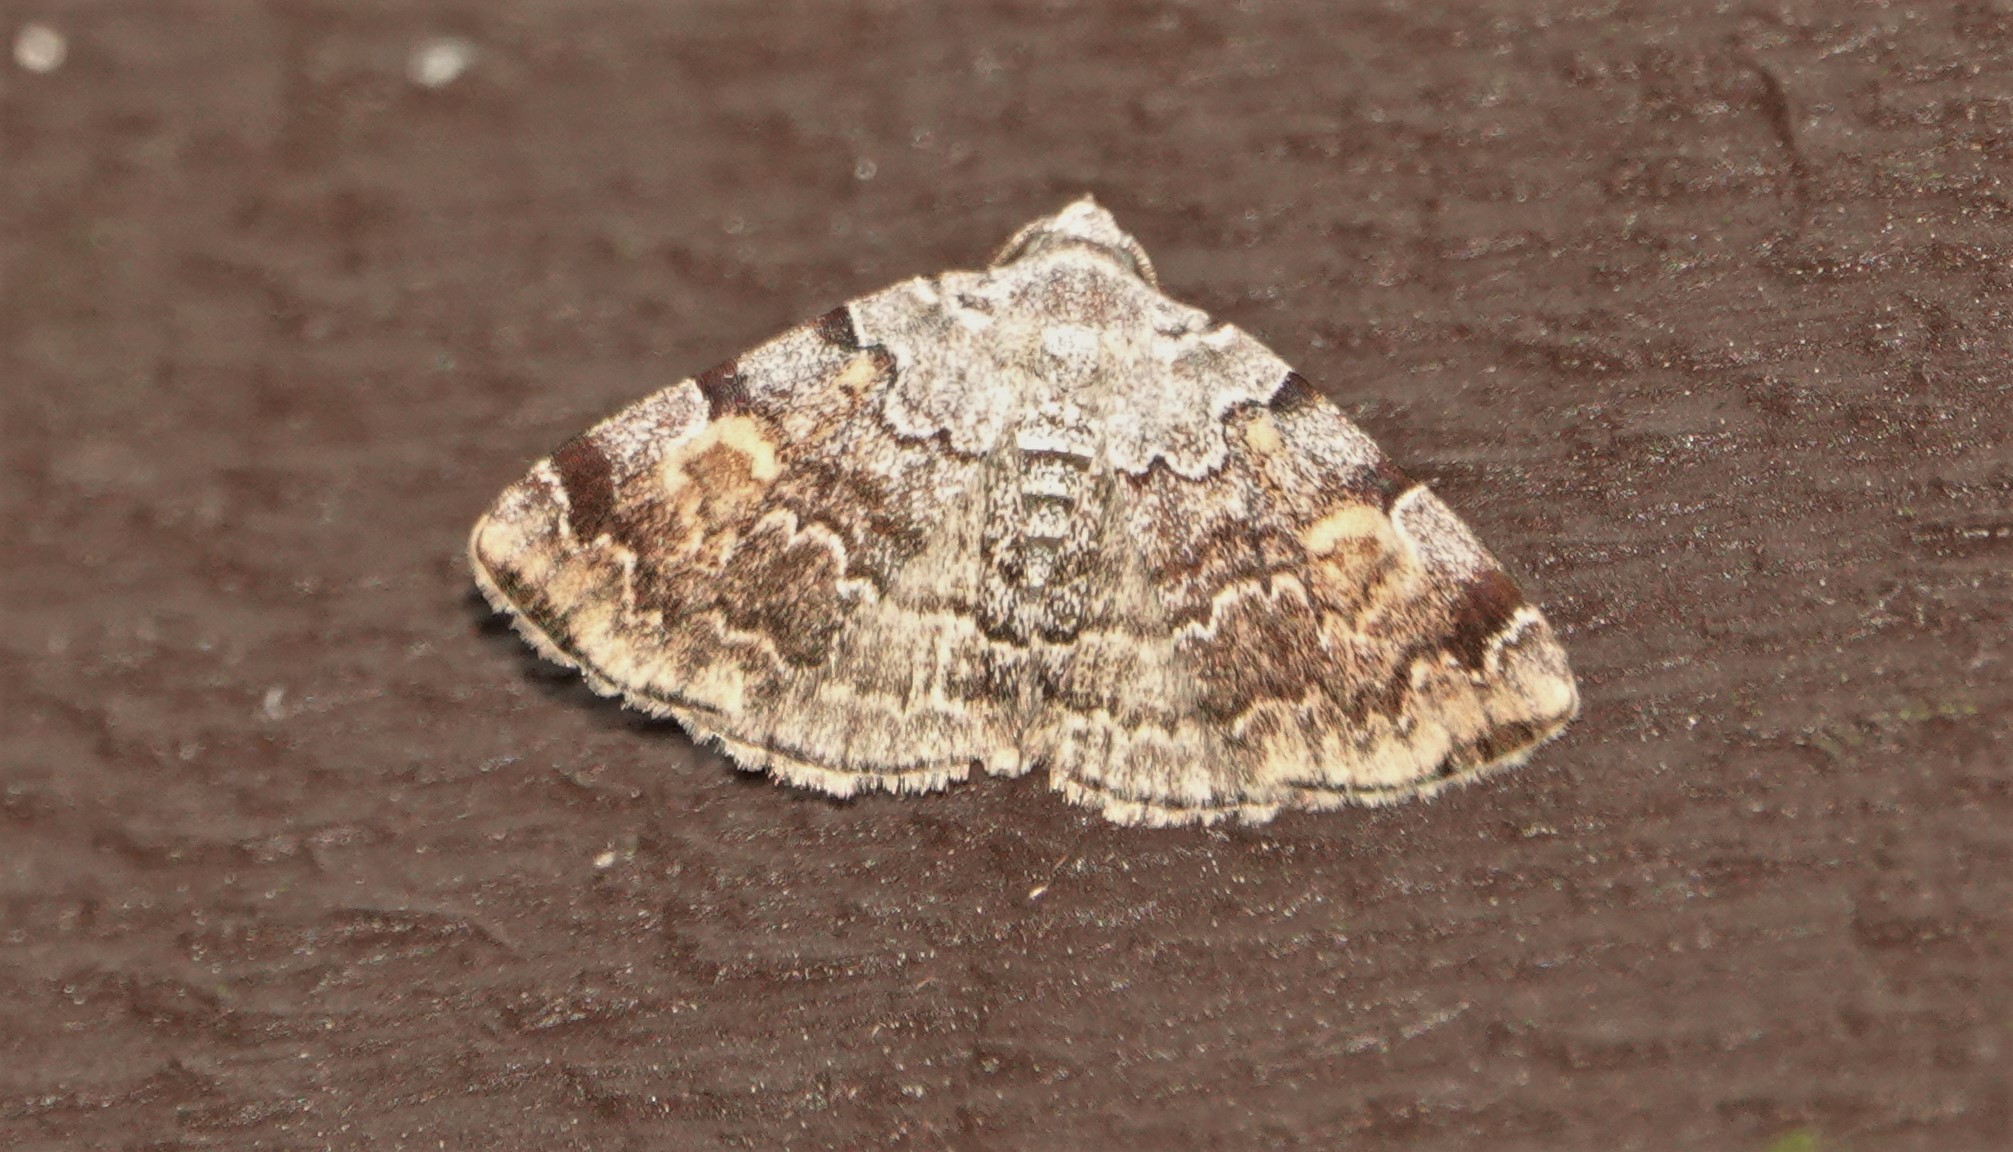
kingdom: Animalia
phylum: Arthropoda
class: Insecta
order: Lepidoptera
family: Erebidae
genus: Idia
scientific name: Idia americalis
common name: American idia moth
